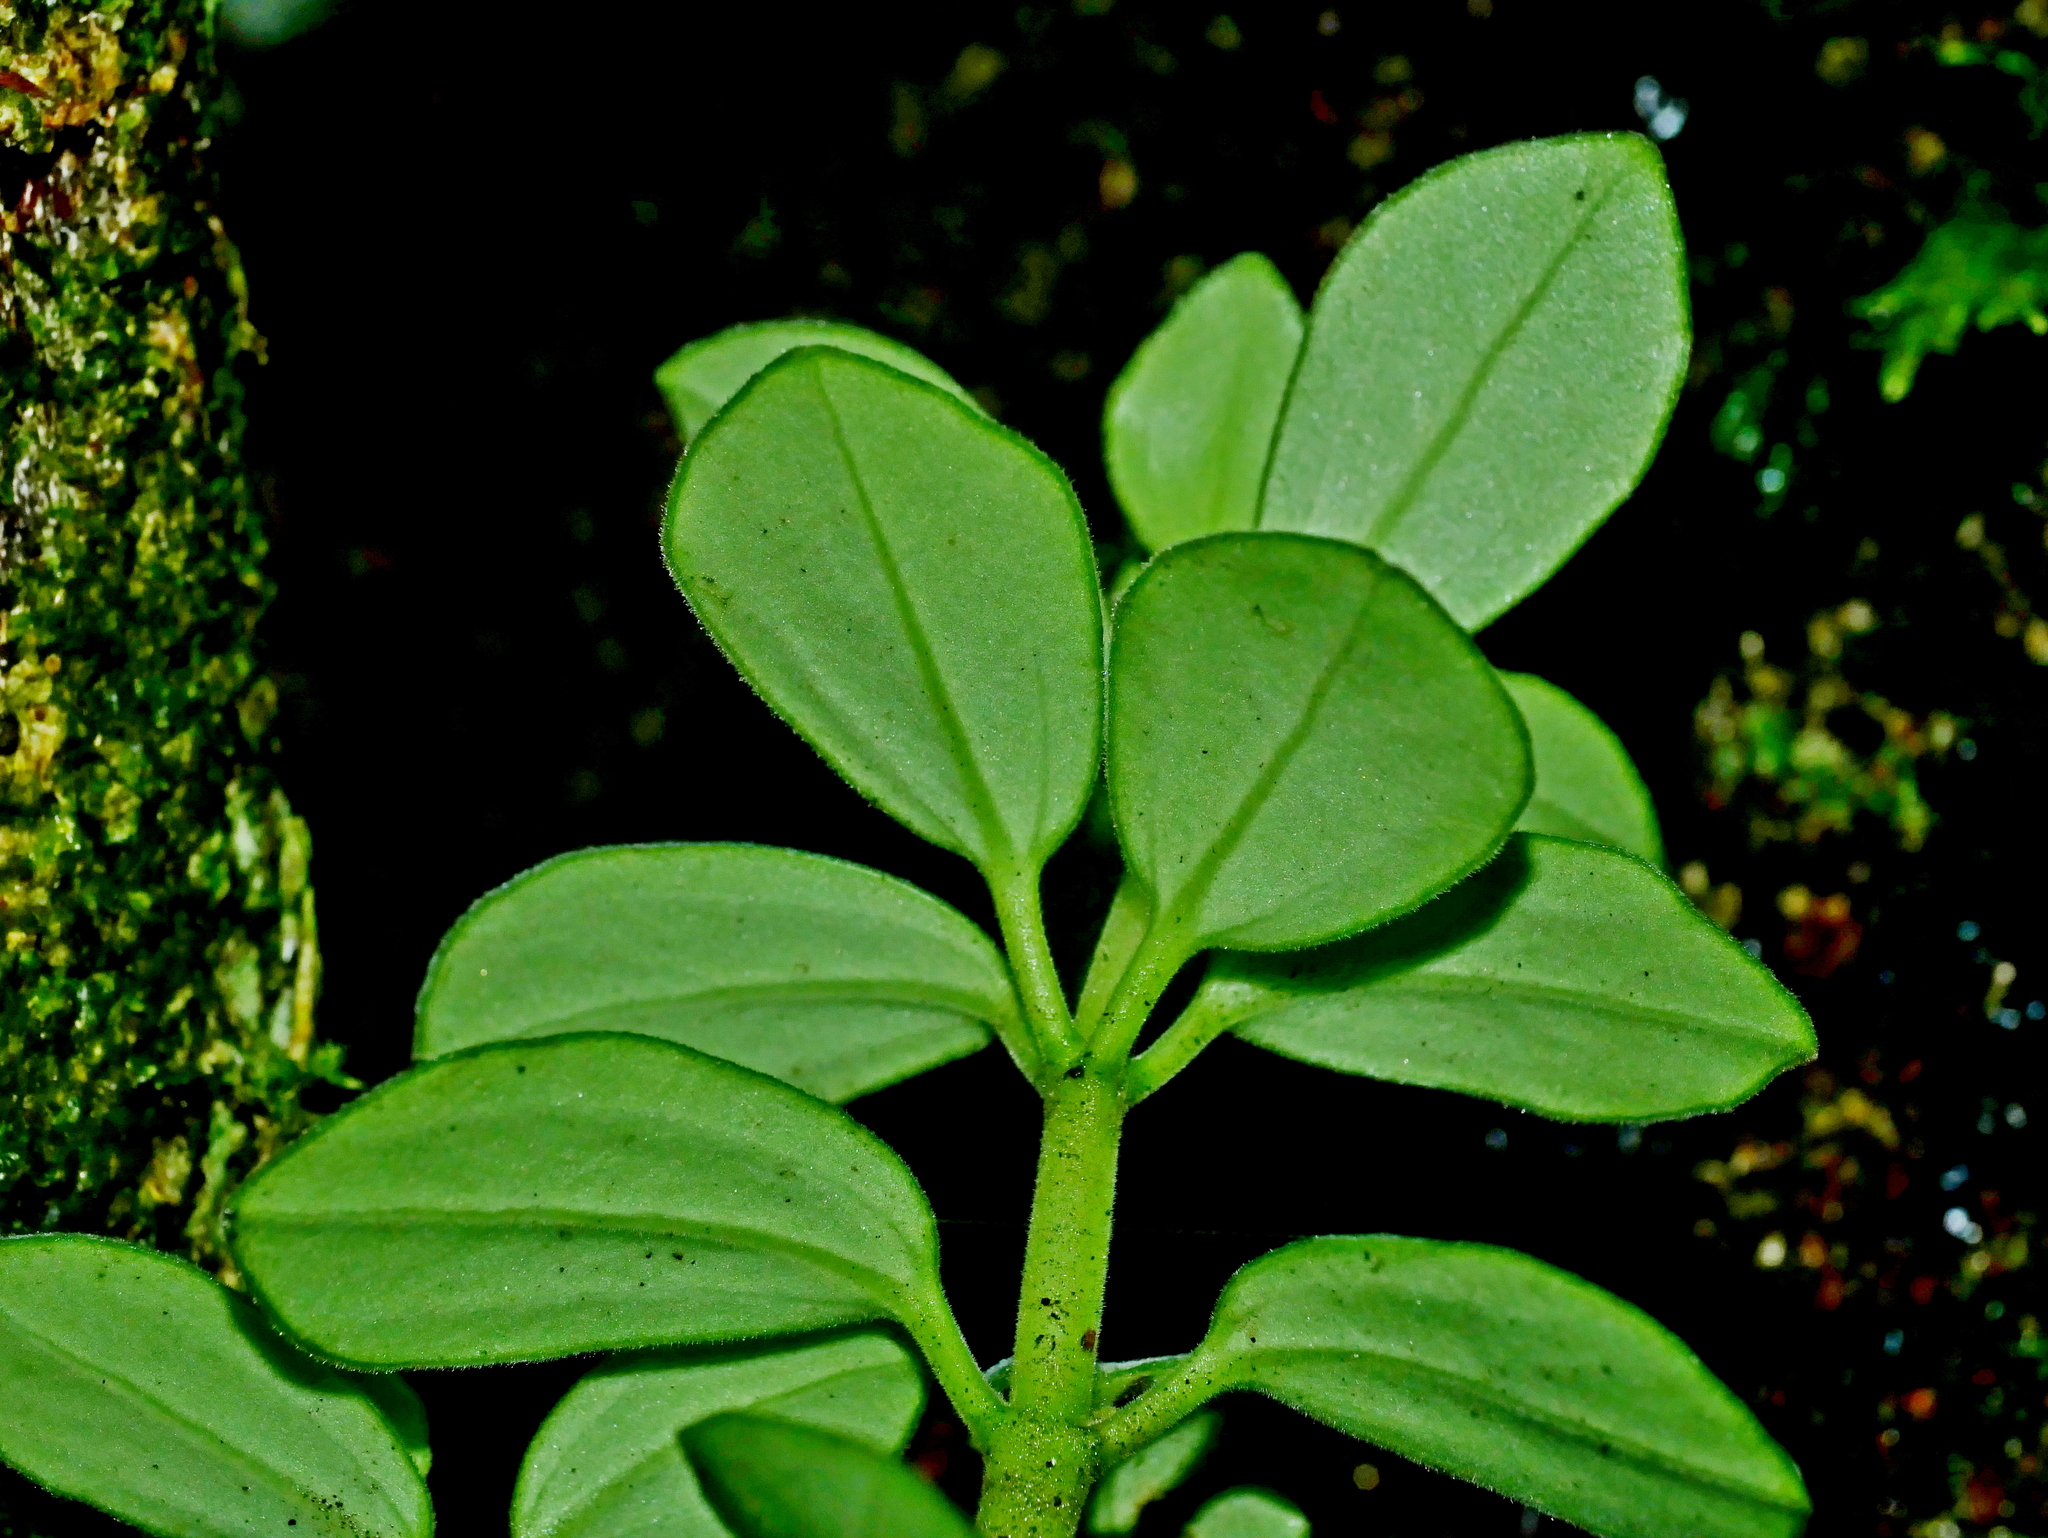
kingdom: Plantae
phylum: Tracheophyta
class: Magnoliopsida
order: Piperales
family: Piperaceae
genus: Peperomia
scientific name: Peperomia japonica
